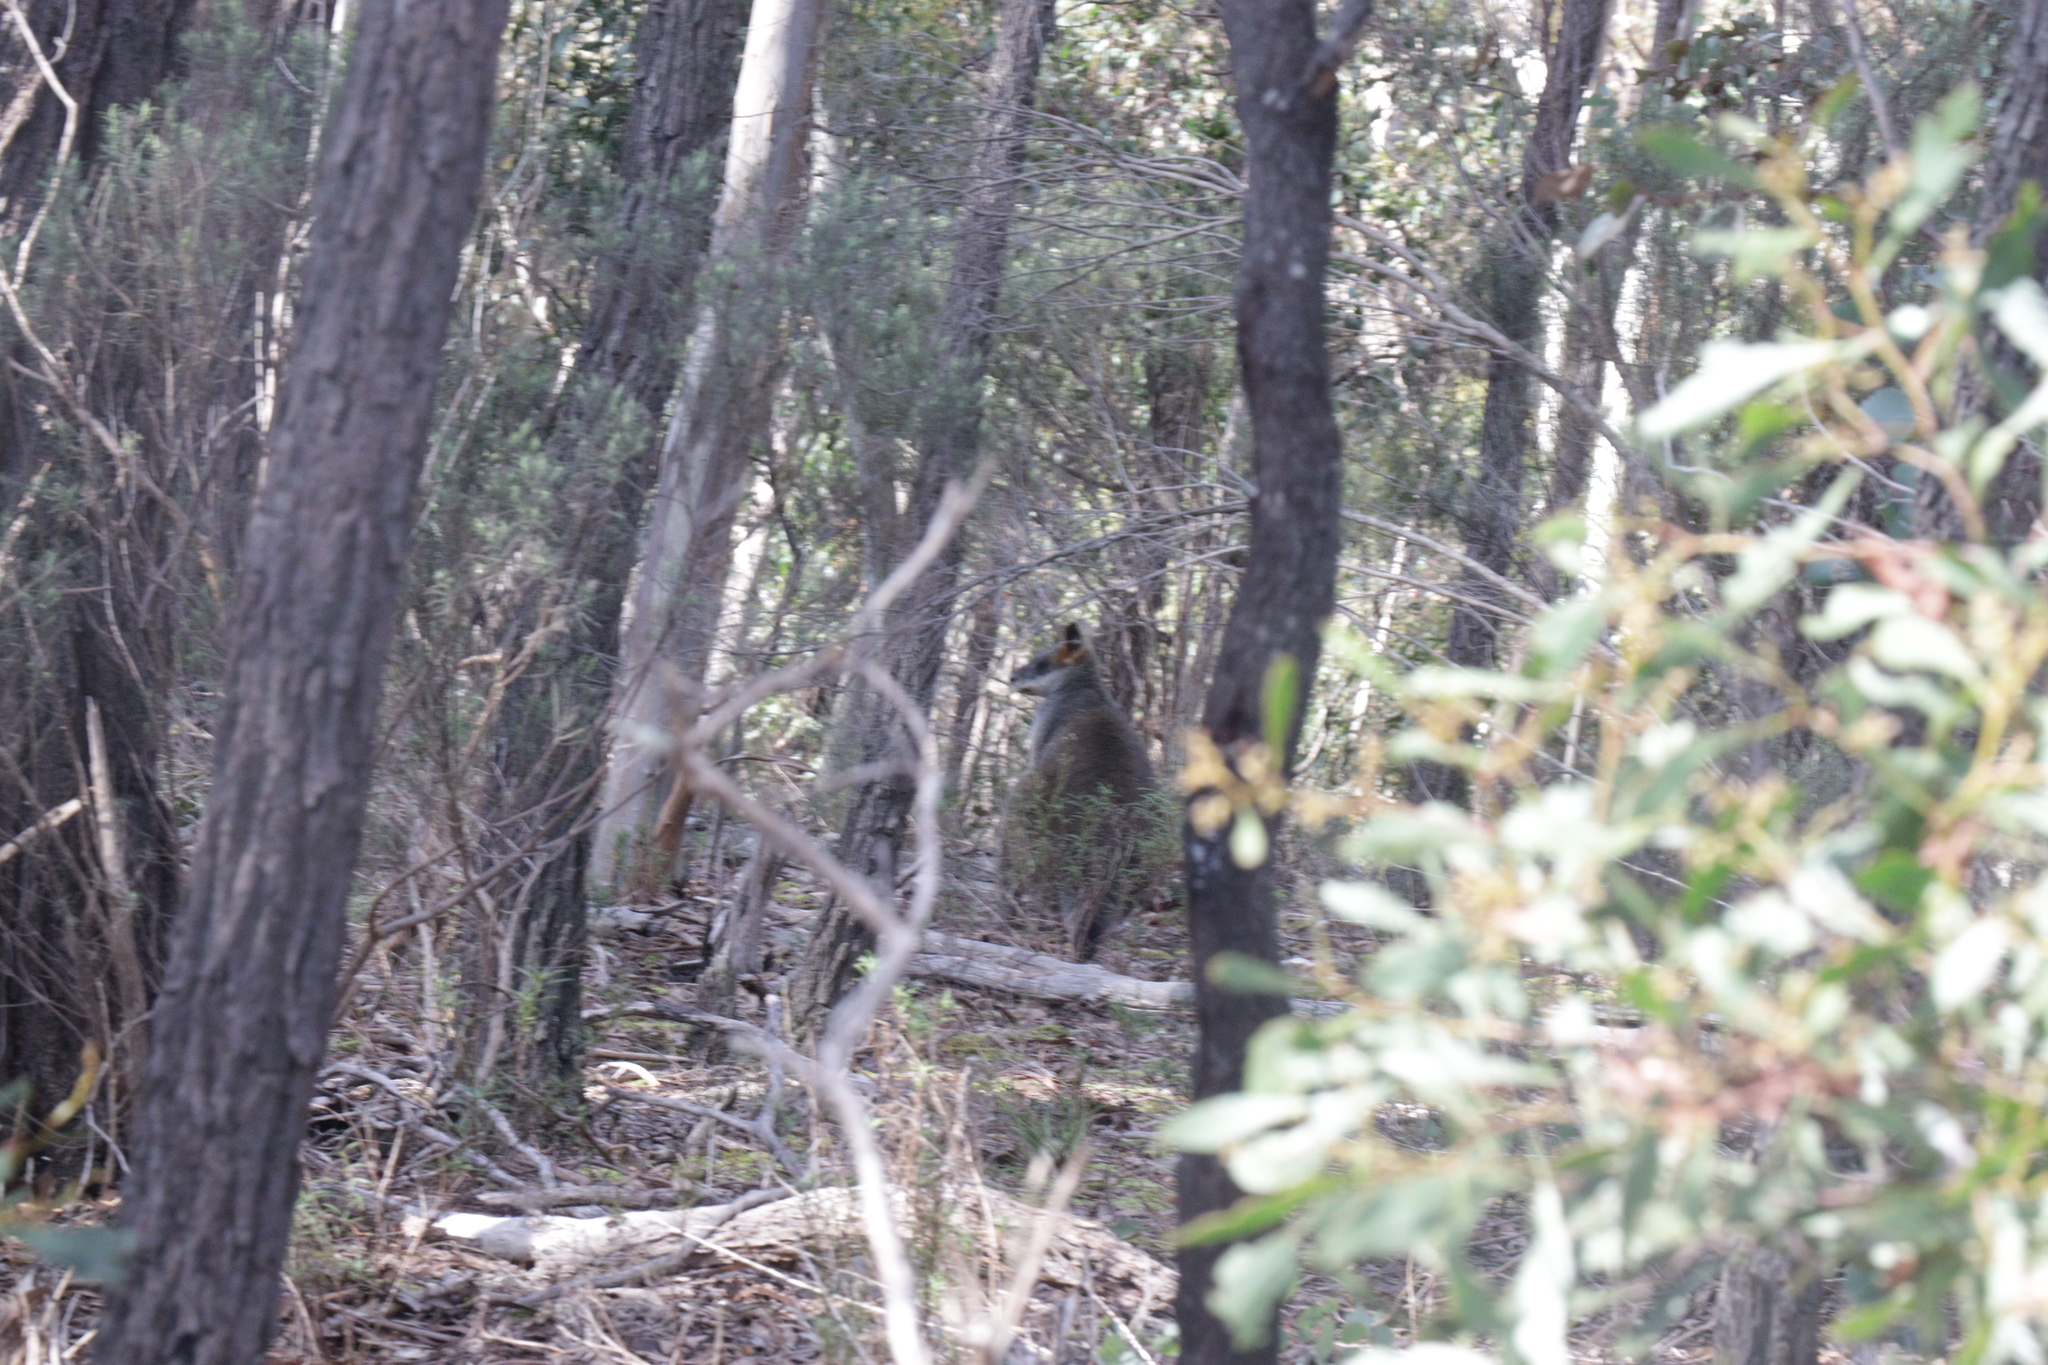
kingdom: Animalia
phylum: Chordata
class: Mammalia
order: Diprotodontia
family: Macropodidae
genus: Wallabia
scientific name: Wallabia bicolor
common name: Swamp wallaby
